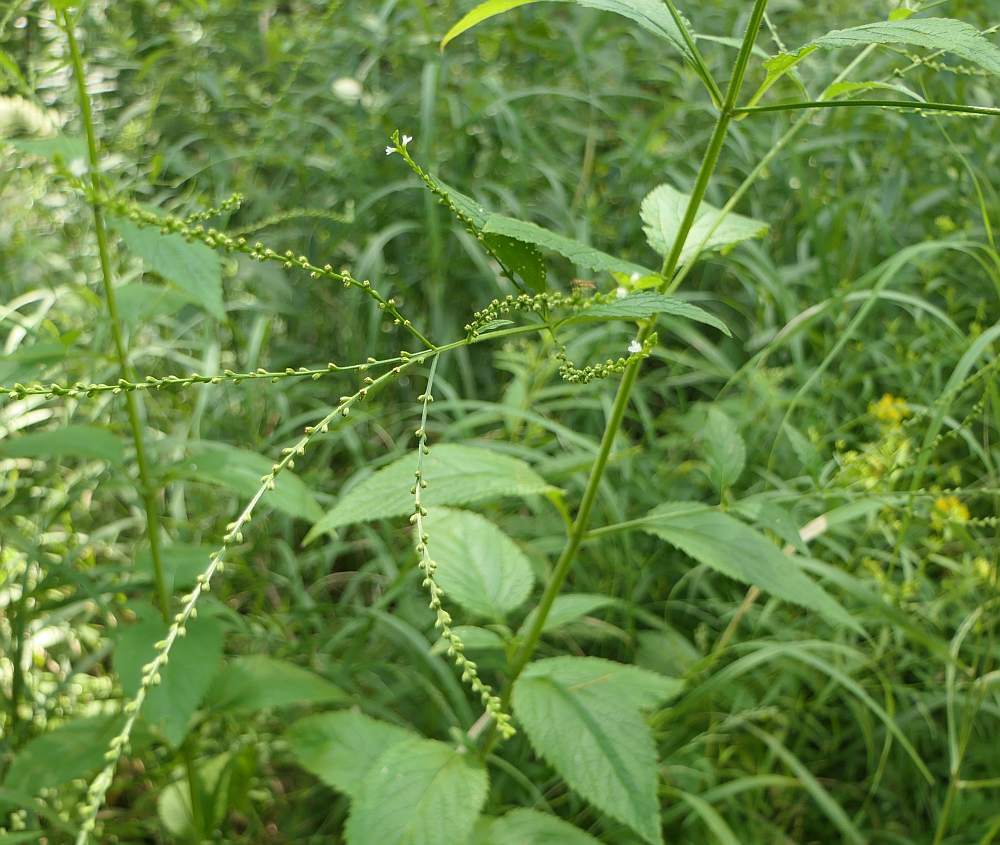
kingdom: Plantae
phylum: Tracheophyta
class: Magnoliopsida
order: Lamiales
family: Verbenaceae
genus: Verbena
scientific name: Verbena urticifolia
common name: Nettle-leaved vervain
